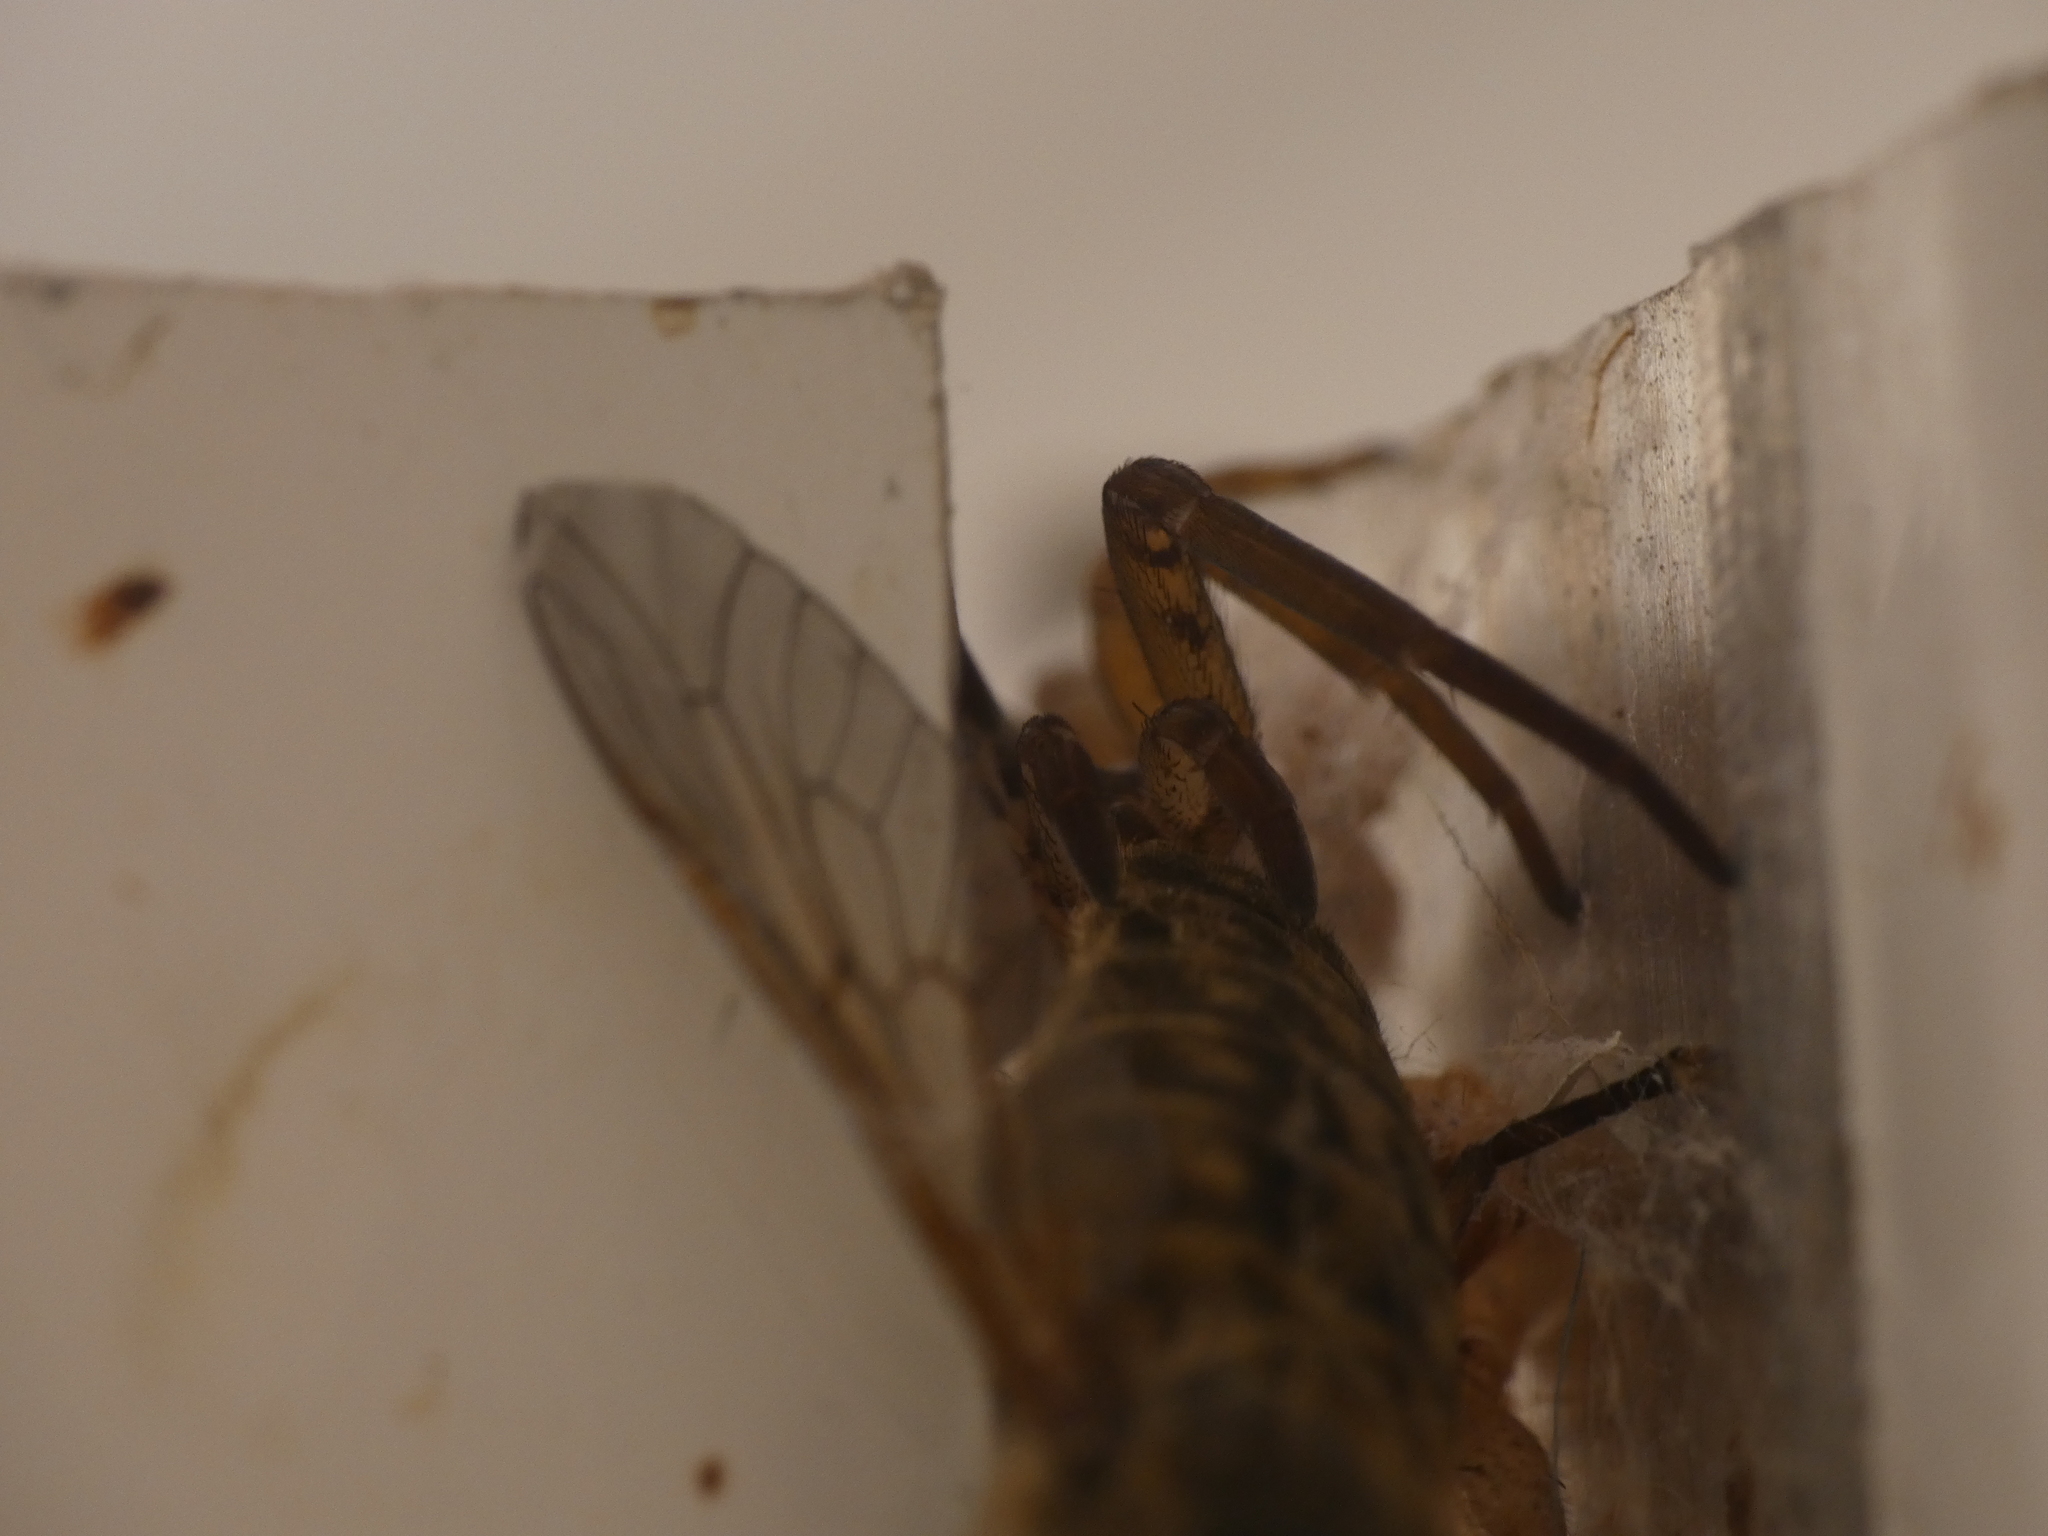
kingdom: Animalia
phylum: Arthropoda
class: Arachnida
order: Araneae
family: Filistatidae
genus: Filistata
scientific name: Filistata insidiatrix
